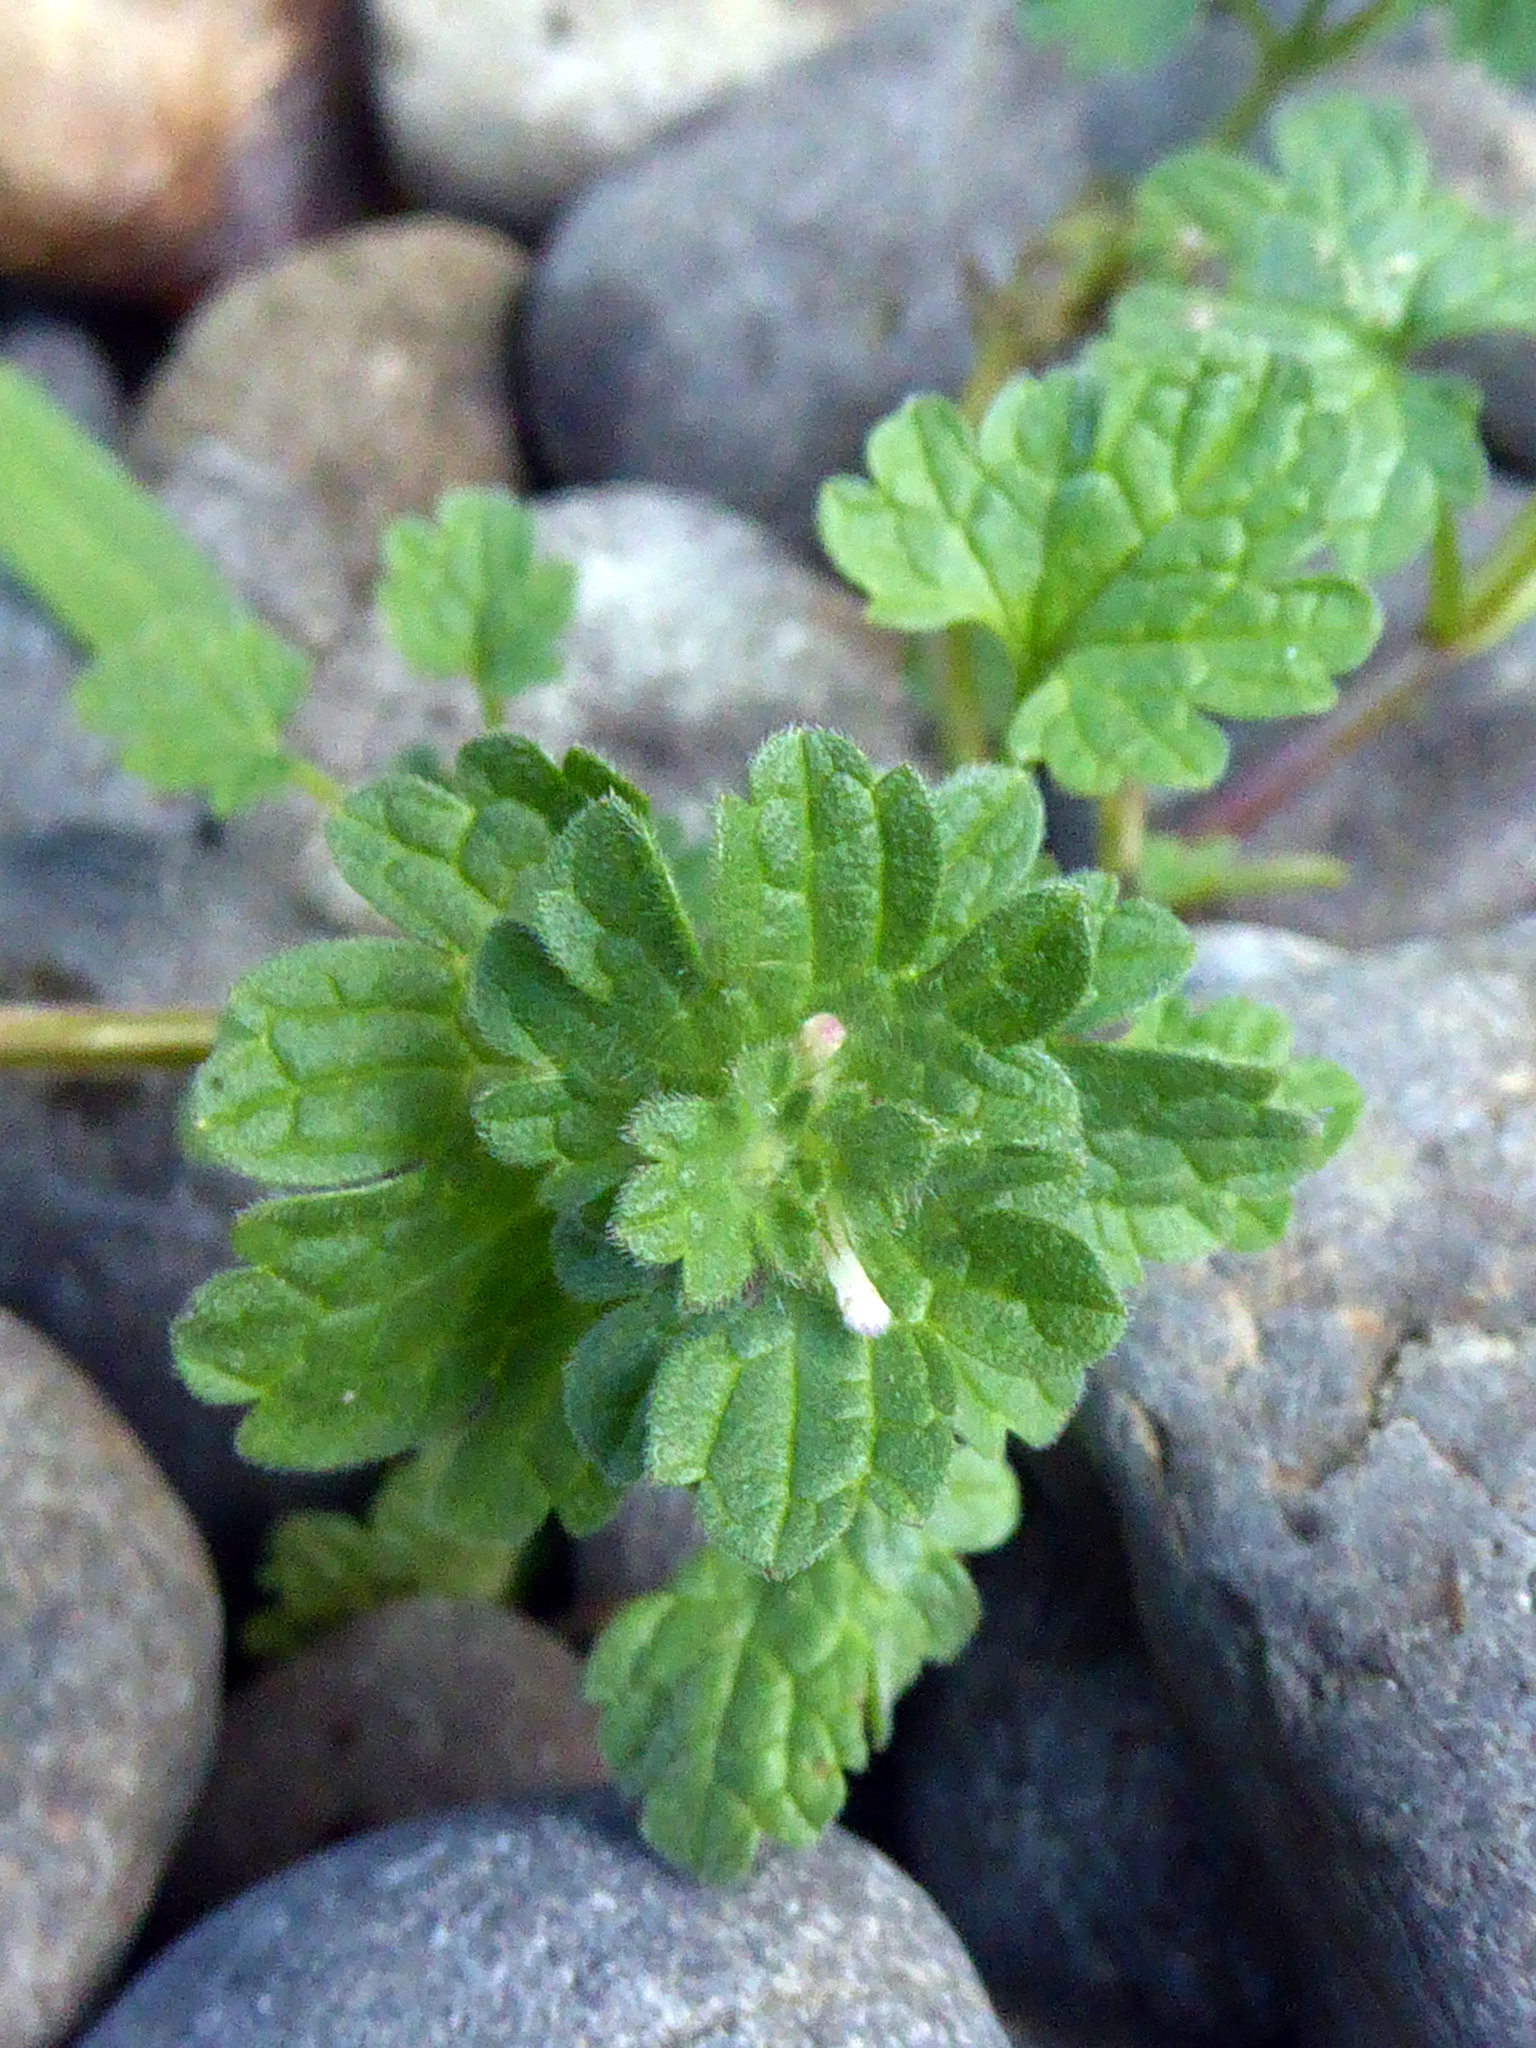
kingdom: Plantae
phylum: Tracheophyta
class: Magnoliopsida
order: Lamiales
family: Lamiaceae
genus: Lamium
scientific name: Lamium amplexicaule
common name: Henbit dead-nettle
